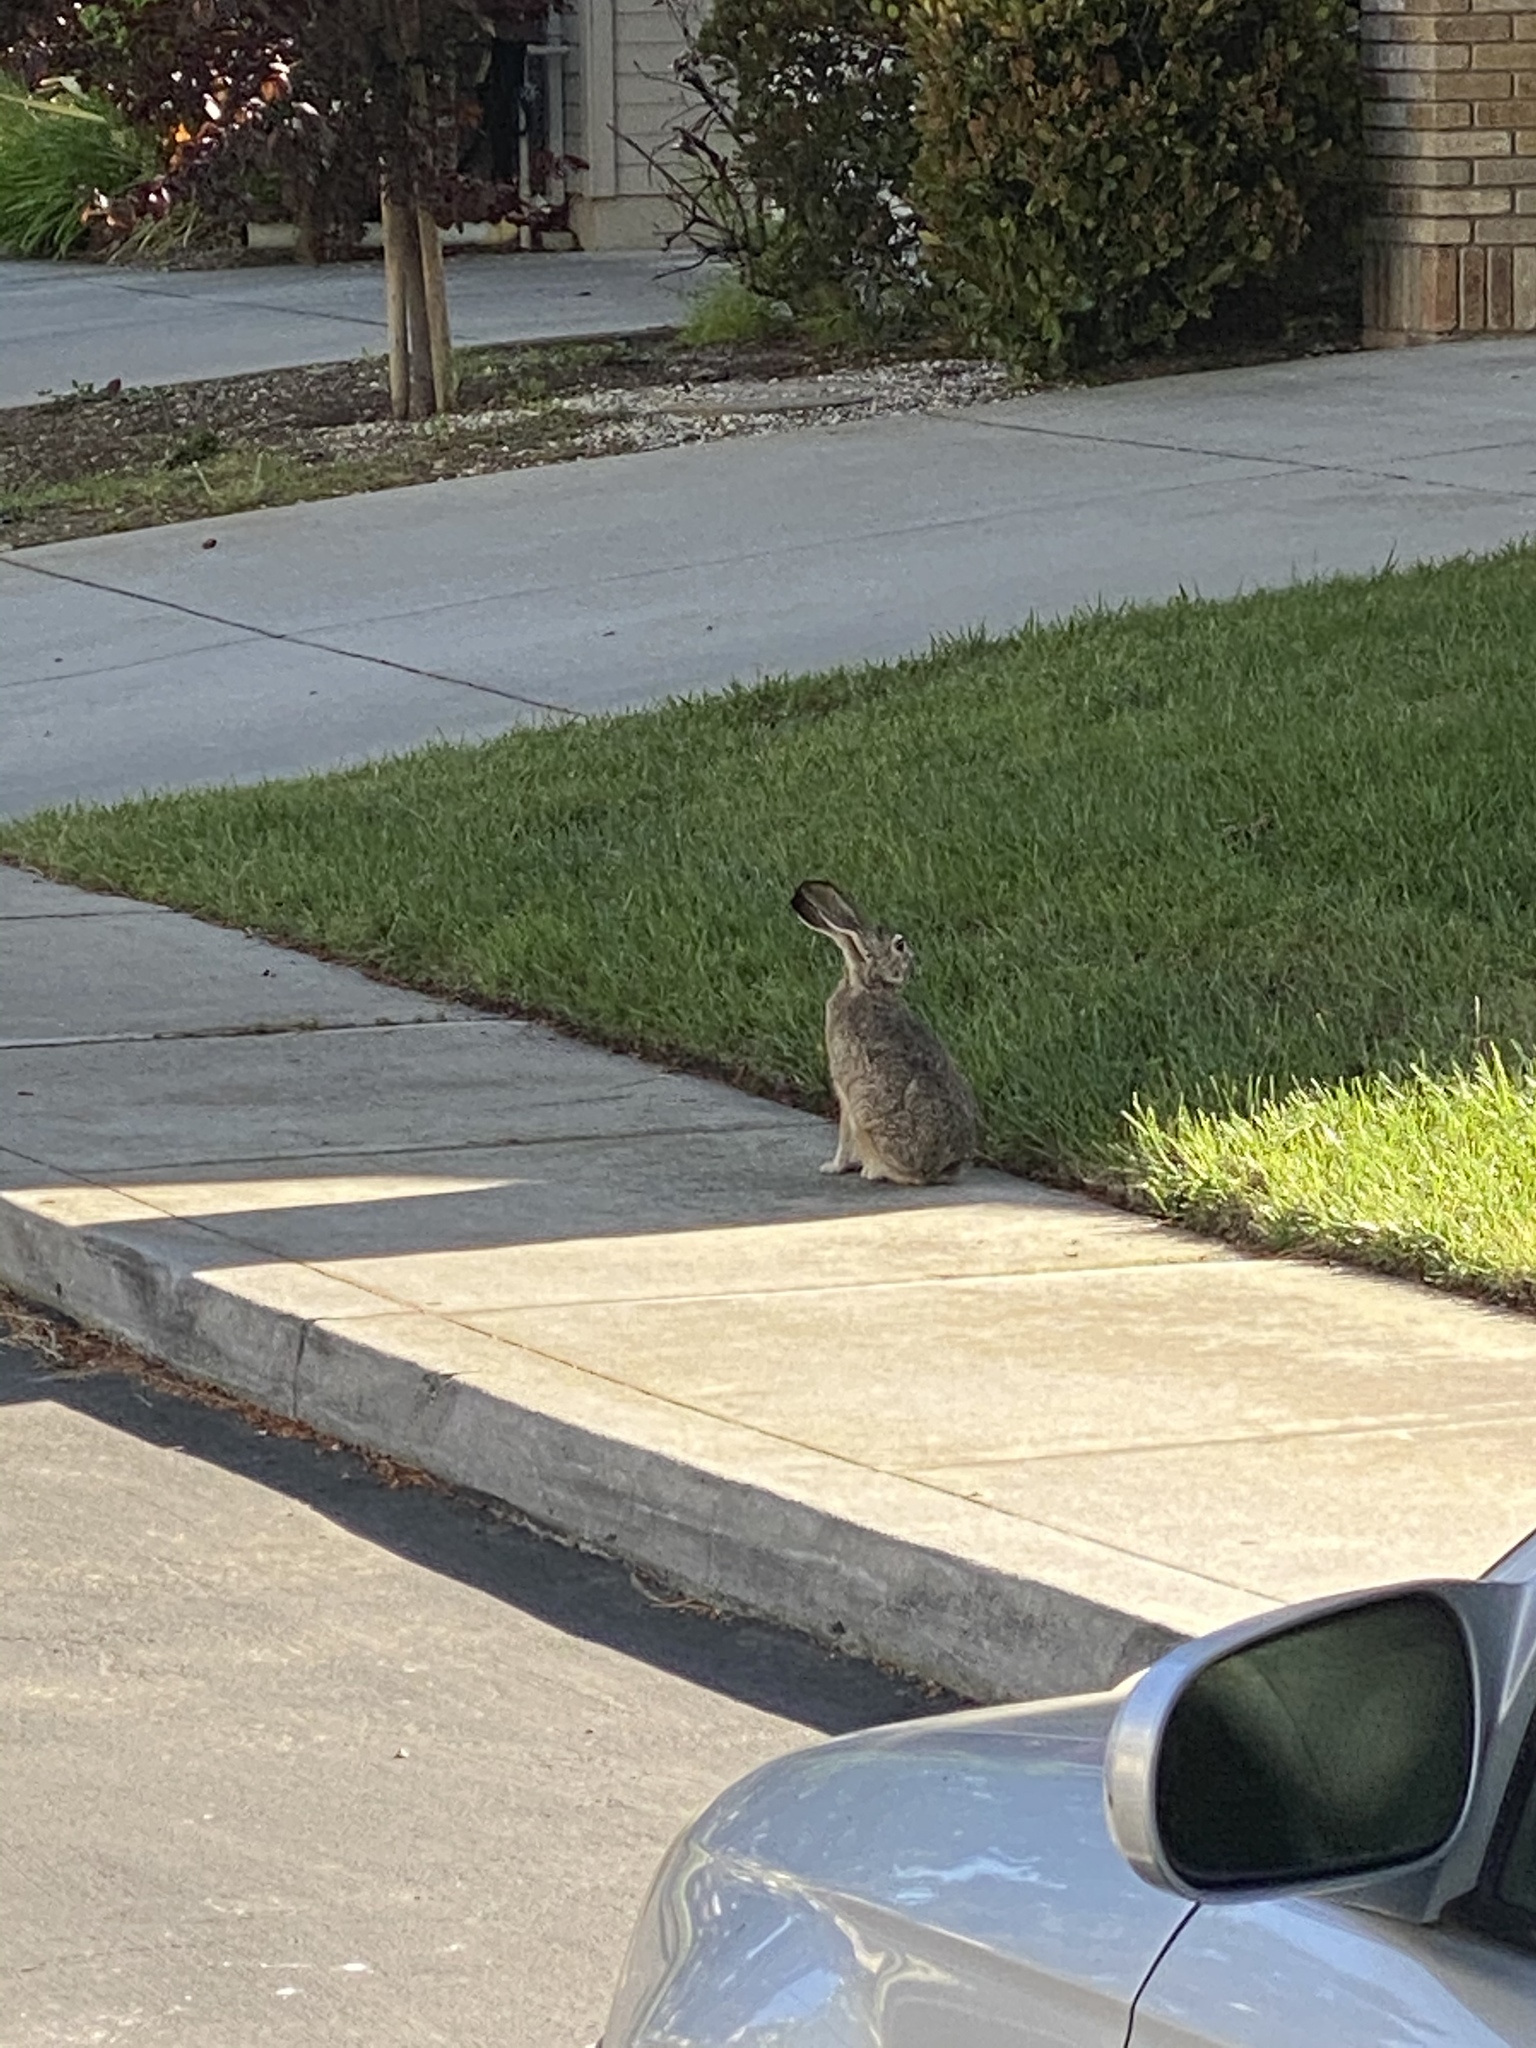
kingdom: Animalia
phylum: Chordata
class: Mammalia
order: Lagomorpha
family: Leporidae
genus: Lepus
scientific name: Lepus californicus
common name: Black-tailed jackrabbit
